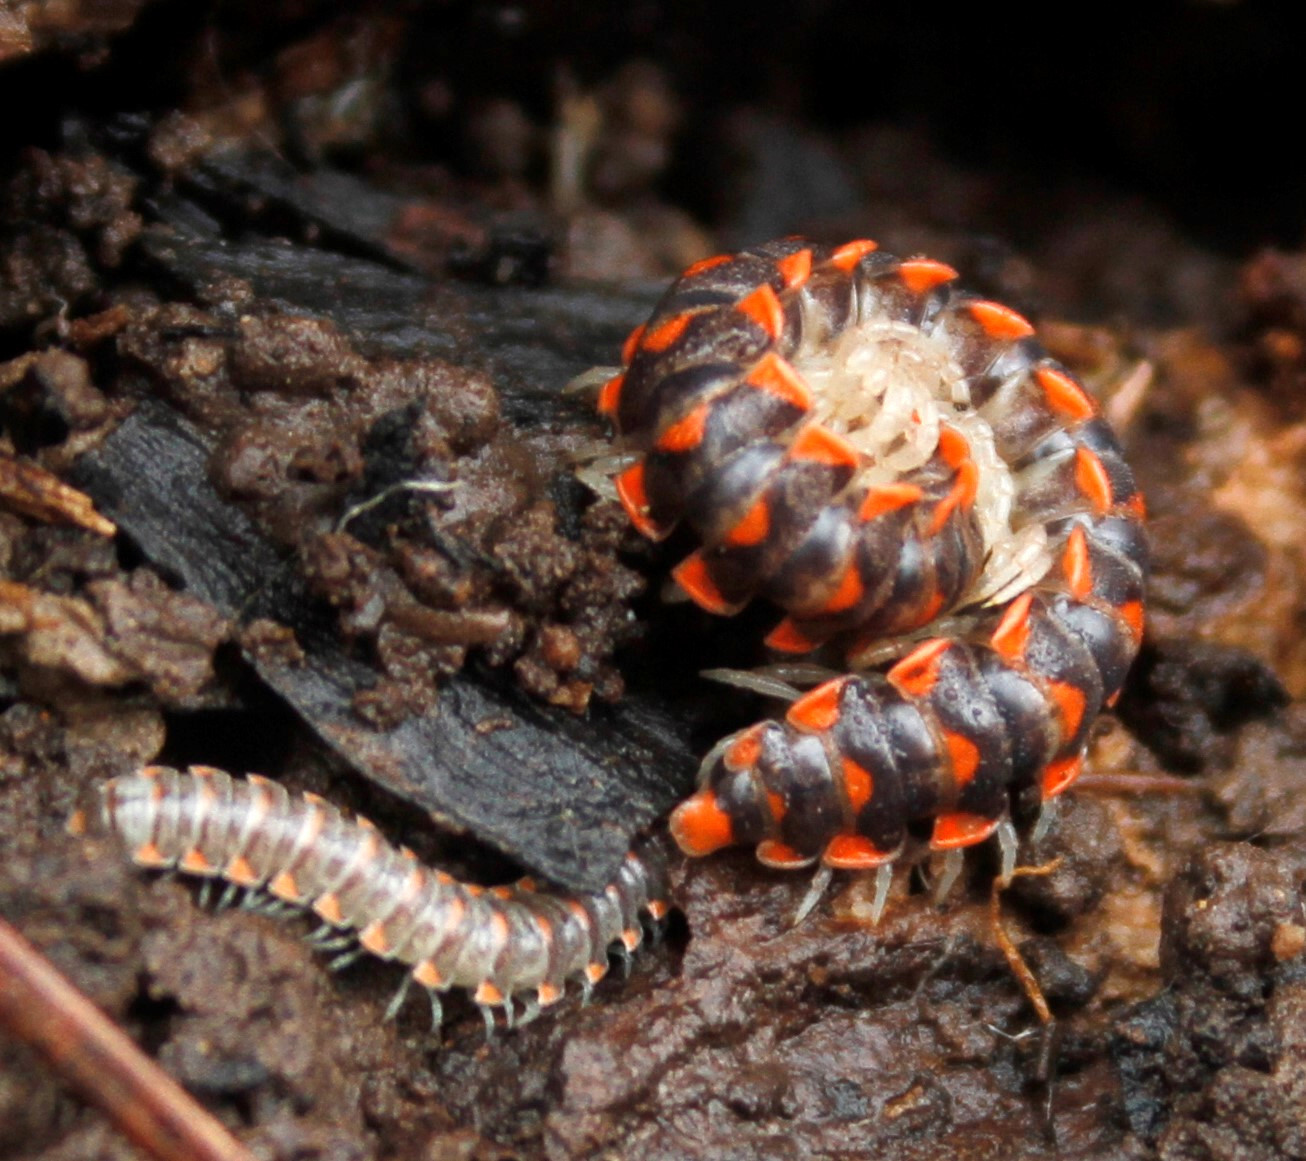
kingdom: Animalia
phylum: Arthropoda
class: Diplopoda
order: Polydesmida
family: Xystodesmidae
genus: Euryurus
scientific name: Euryurus carolinensis
